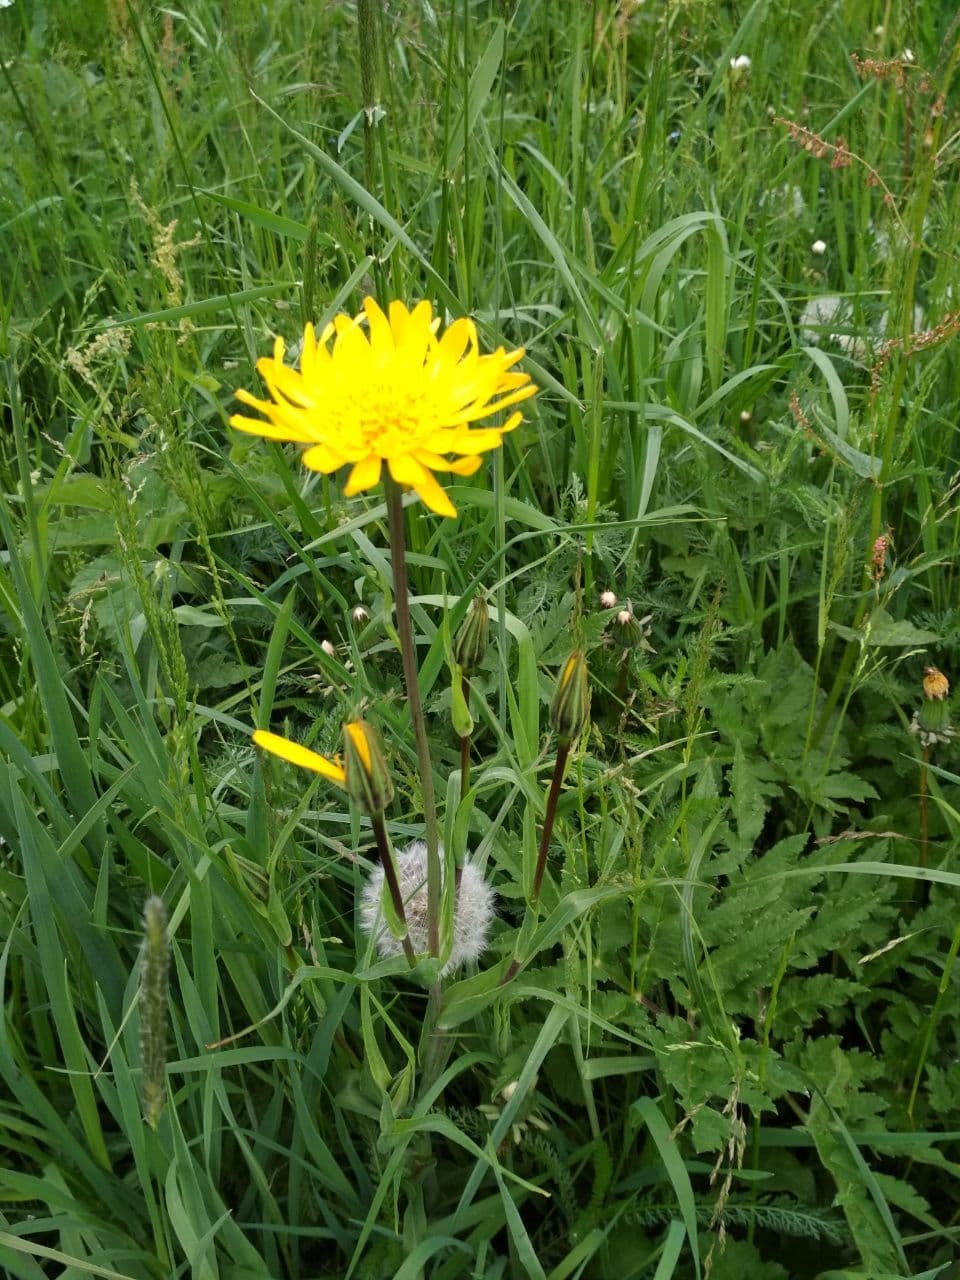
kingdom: Plantae
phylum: Tracheophyta
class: Magnoliopsida
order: Asterales
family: Asteraceae
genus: Tragopogon
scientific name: Tragopogon orientalis
